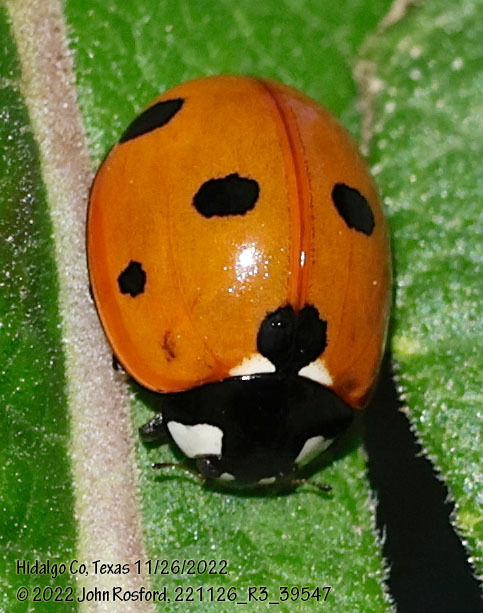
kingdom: Animalia
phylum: Arthropoda
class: Insecta
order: Coleoptera
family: Coccinellidae
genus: Coccinella
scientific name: Coccinella septempunctata
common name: Sevenspotted lady beetle
